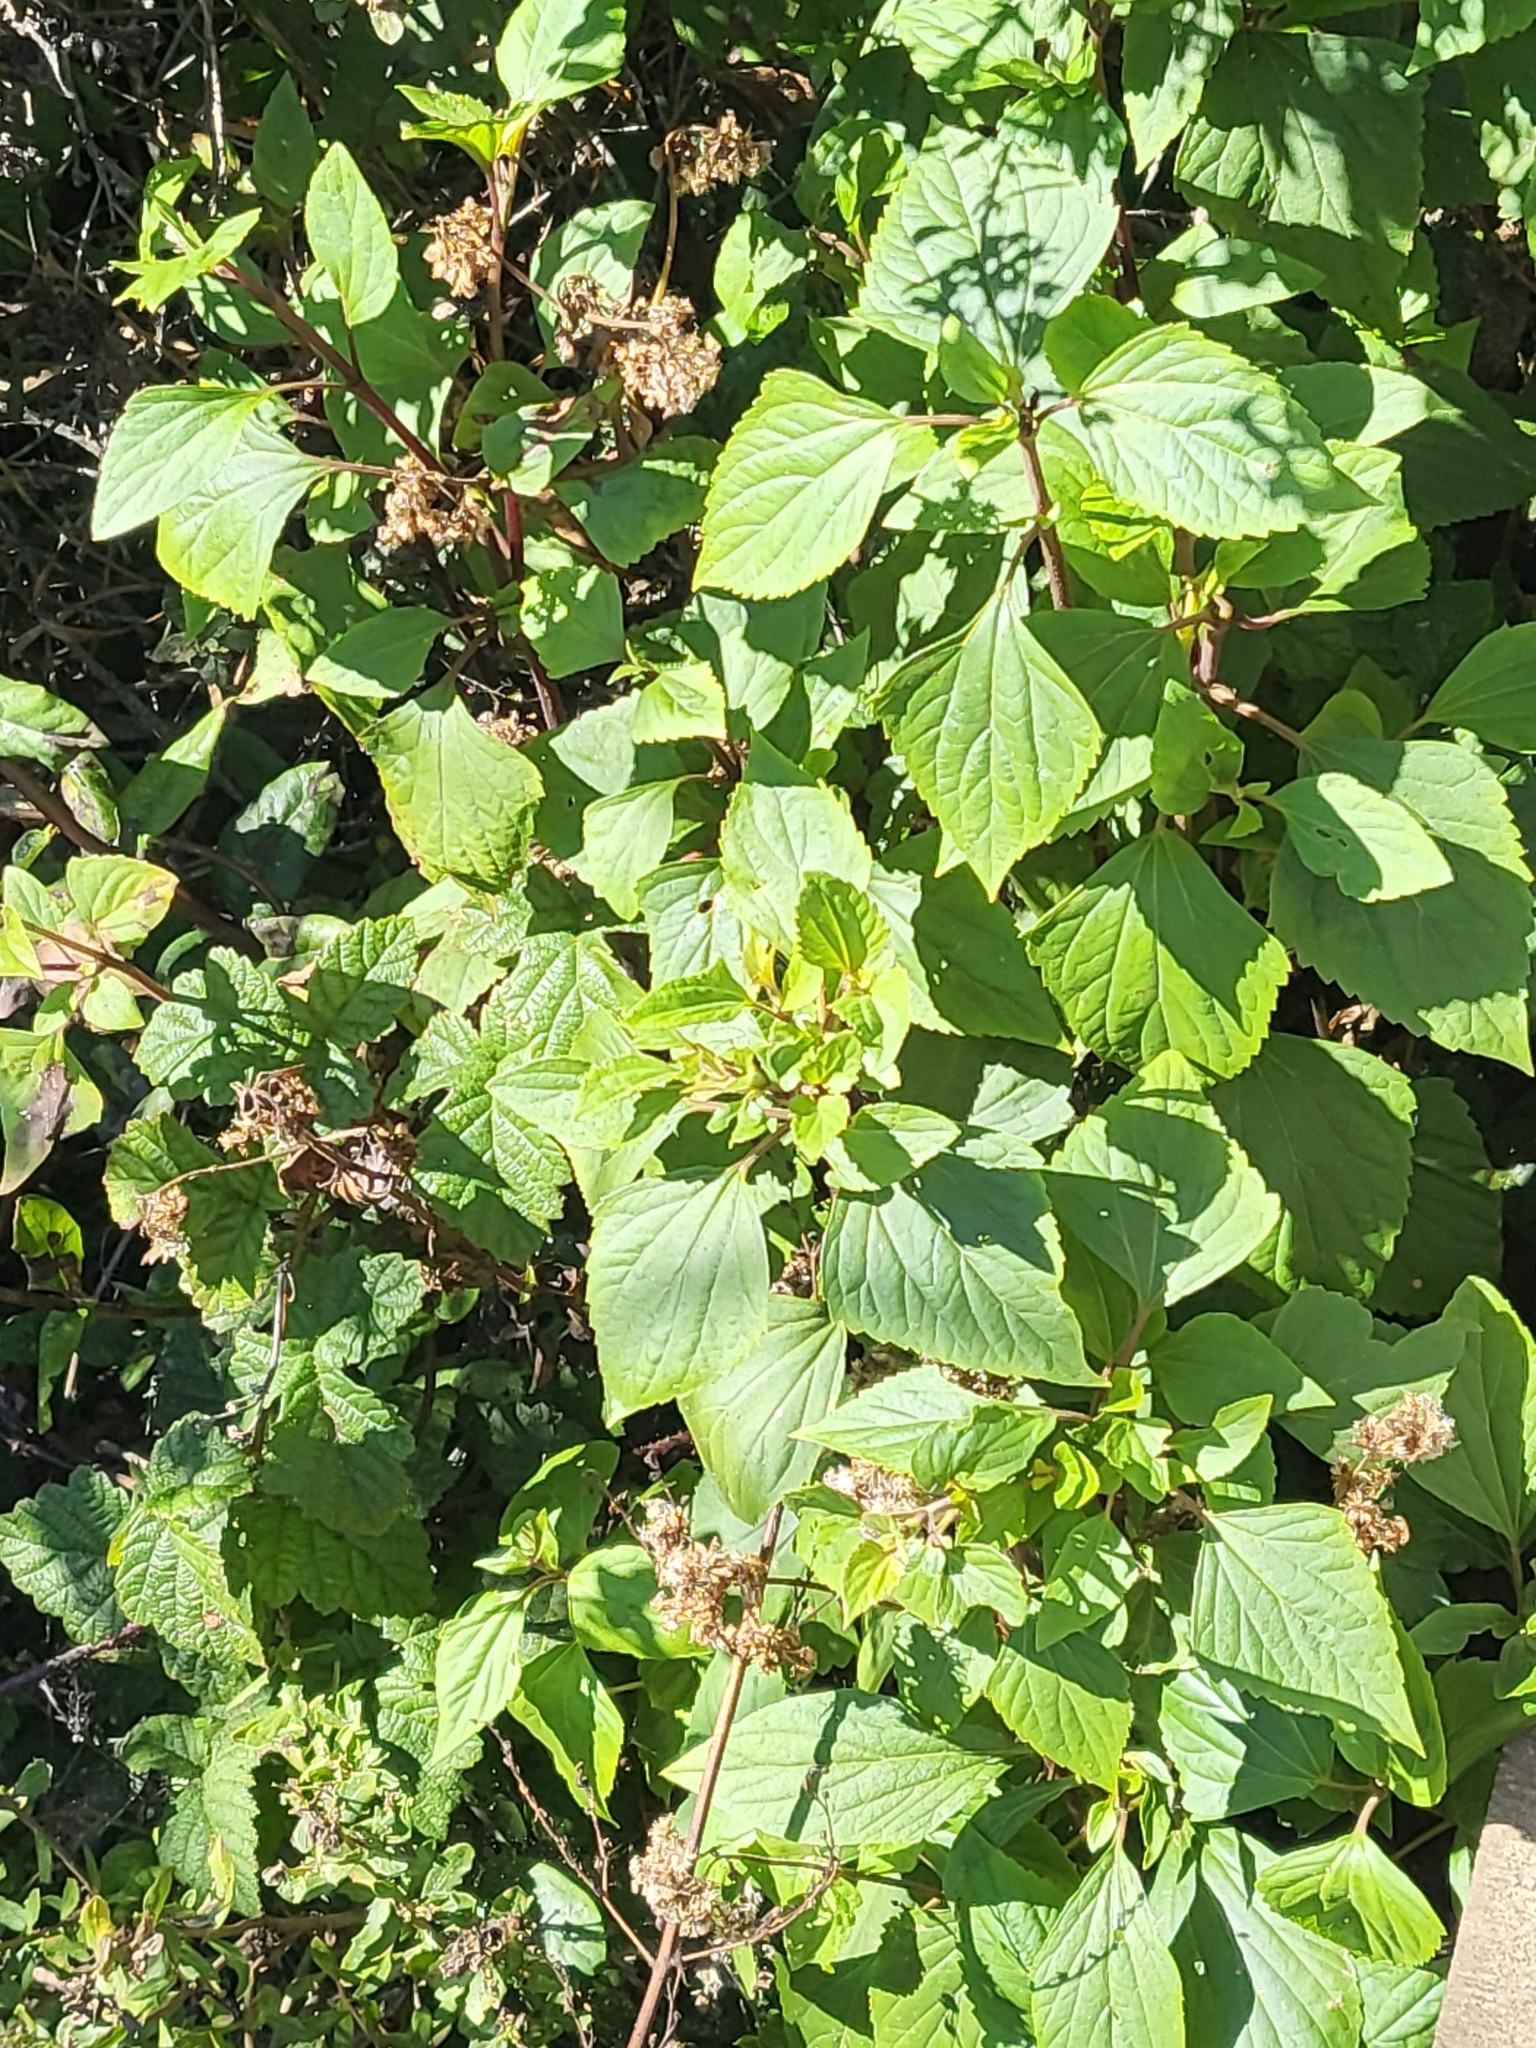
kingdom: Plantae
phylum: Tracheophyta
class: Magnoliopsida
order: Asterales
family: Asteraceae
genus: Ageratina
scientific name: Ageratina adenophora
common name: Sticky snakeroot
